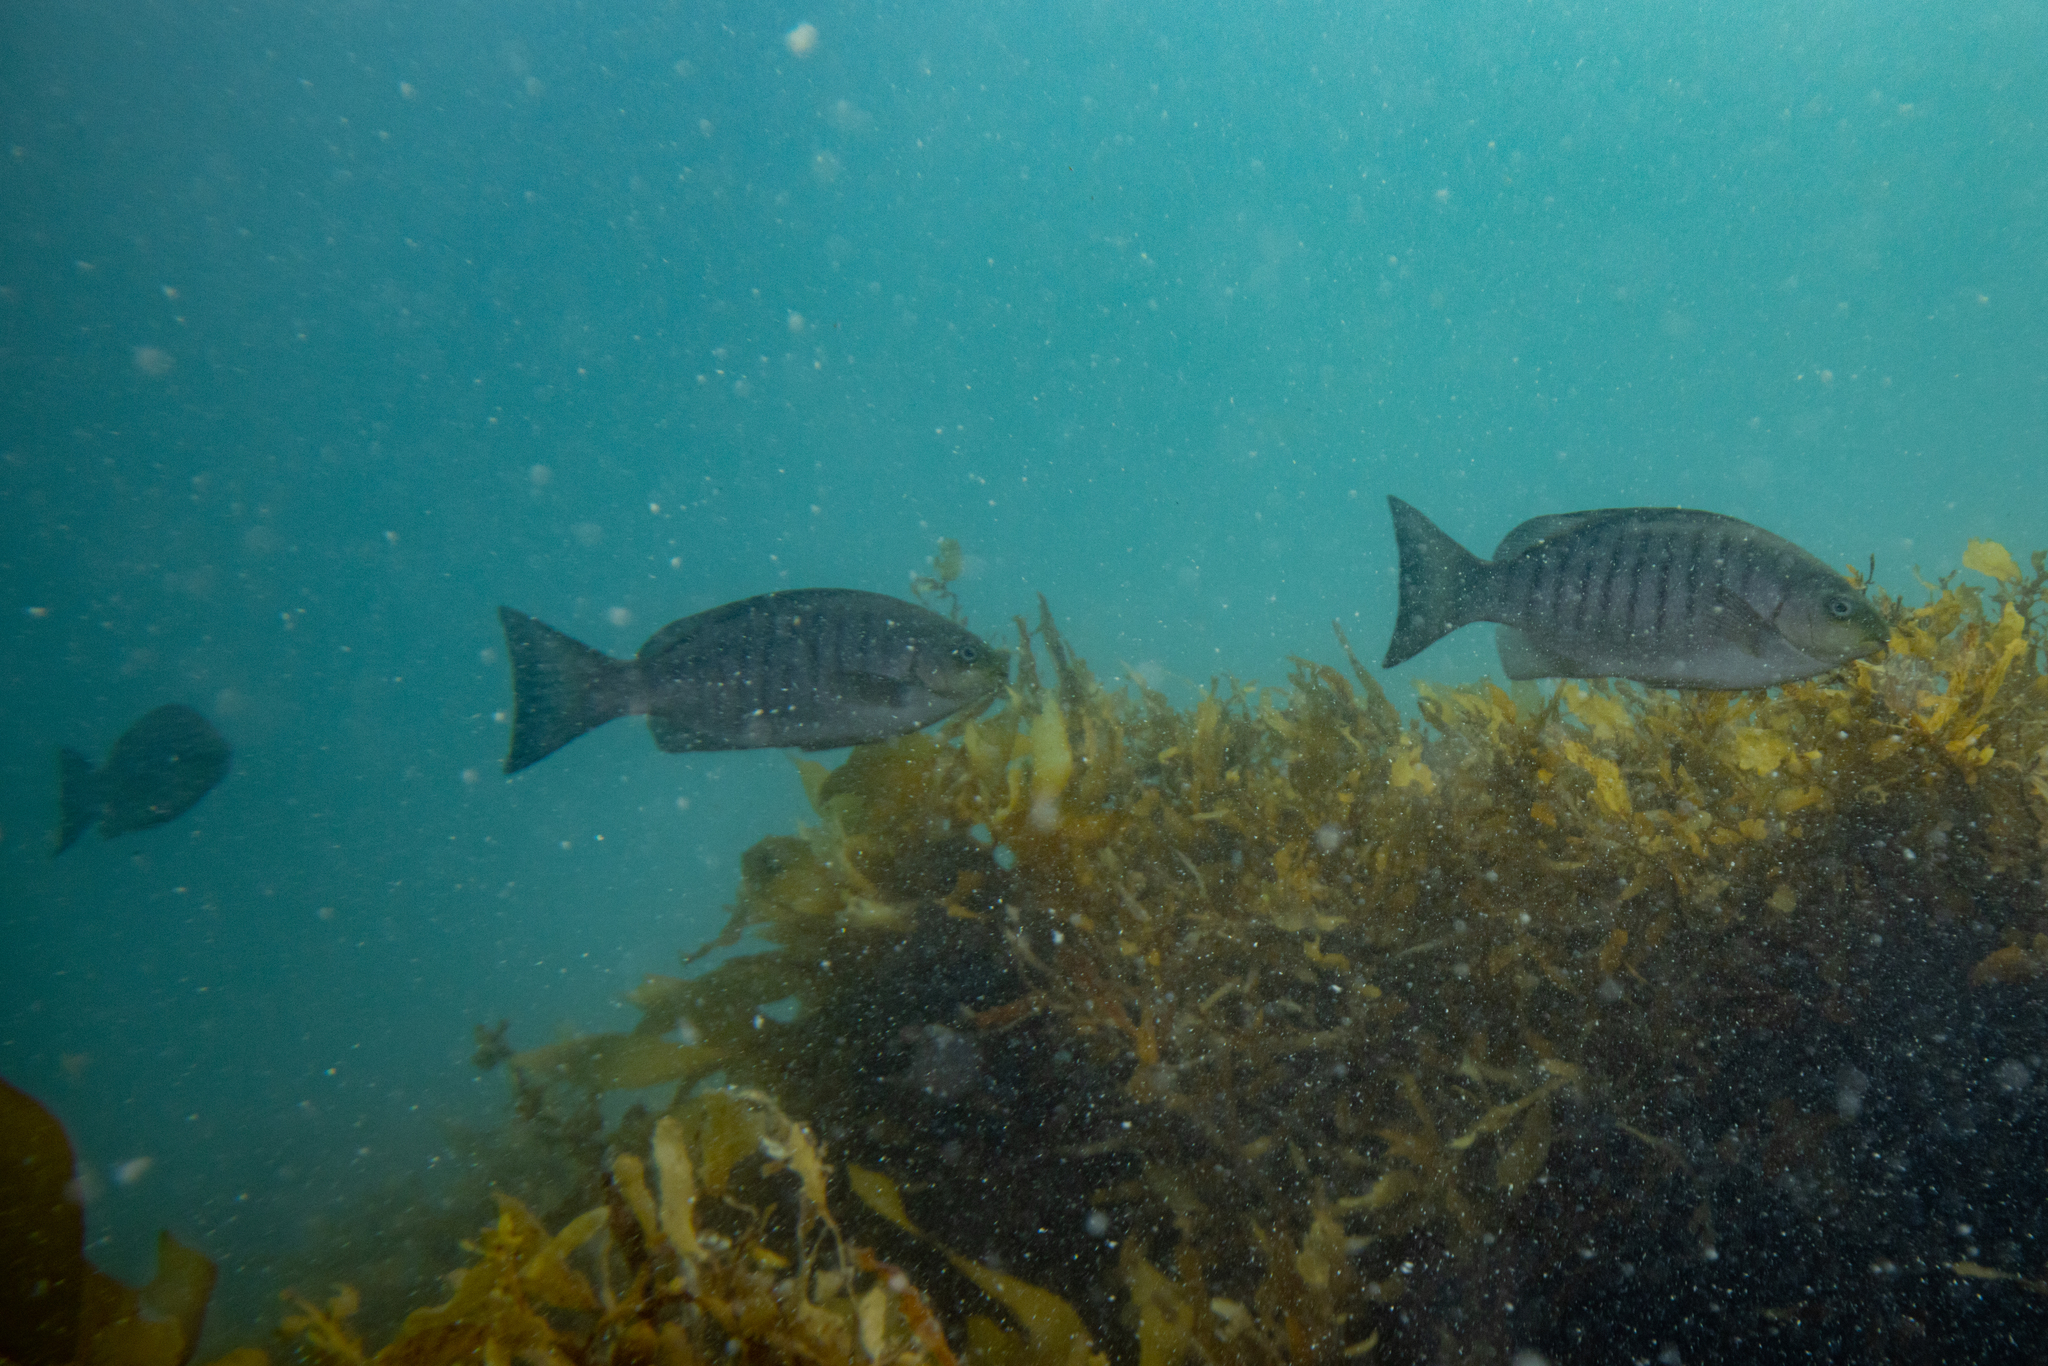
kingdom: Animalia
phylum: Chordata
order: Perciformes
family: Kyphosidae
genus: Girella
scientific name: Girella tricuspidata
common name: Parore
